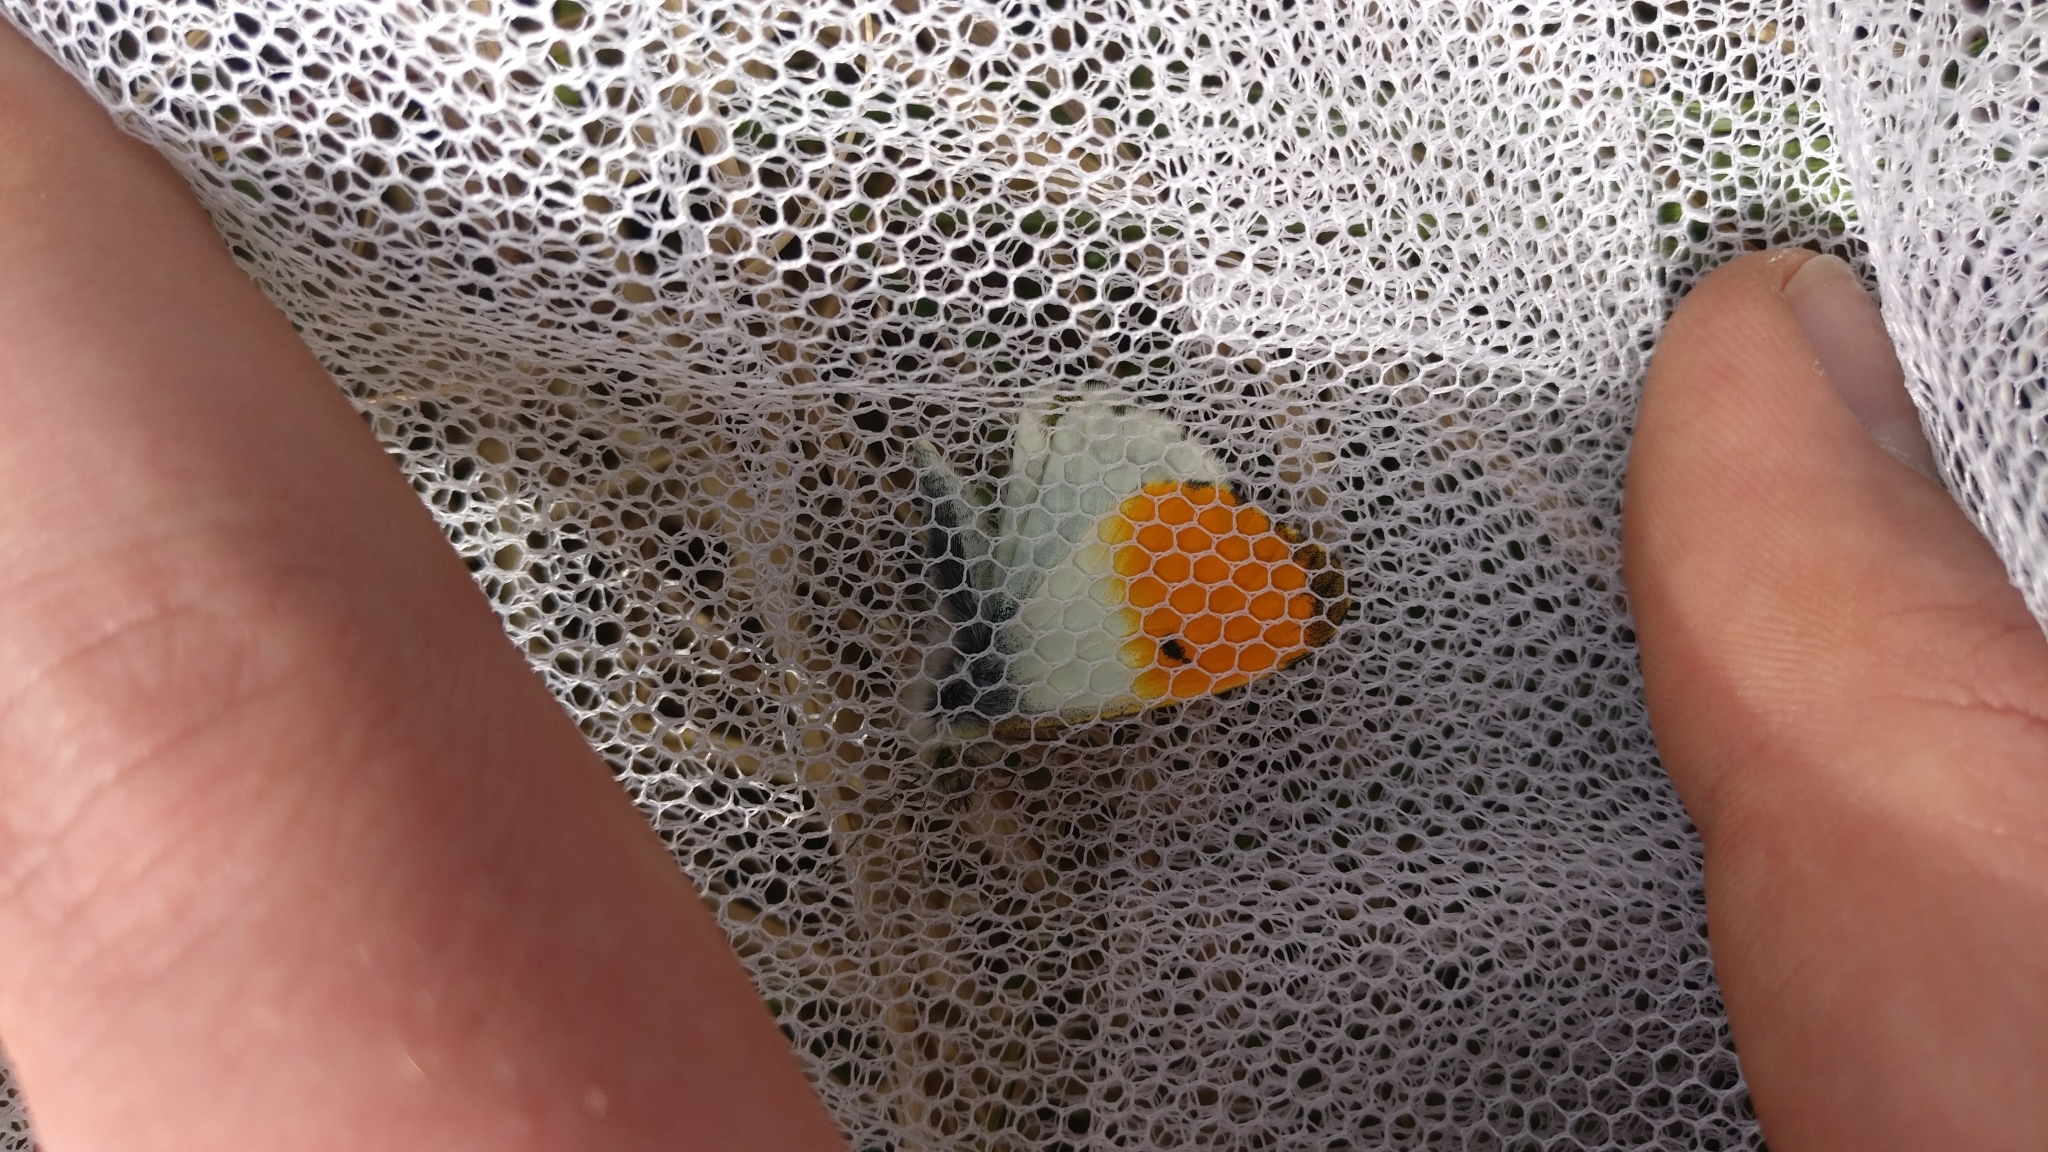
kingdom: Animalia
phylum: Arthropoda
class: Insecta
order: Lepidoptera
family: Pieridae
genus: Anthocharis
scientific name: Anthocharis cardamines
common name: Orange-tip
